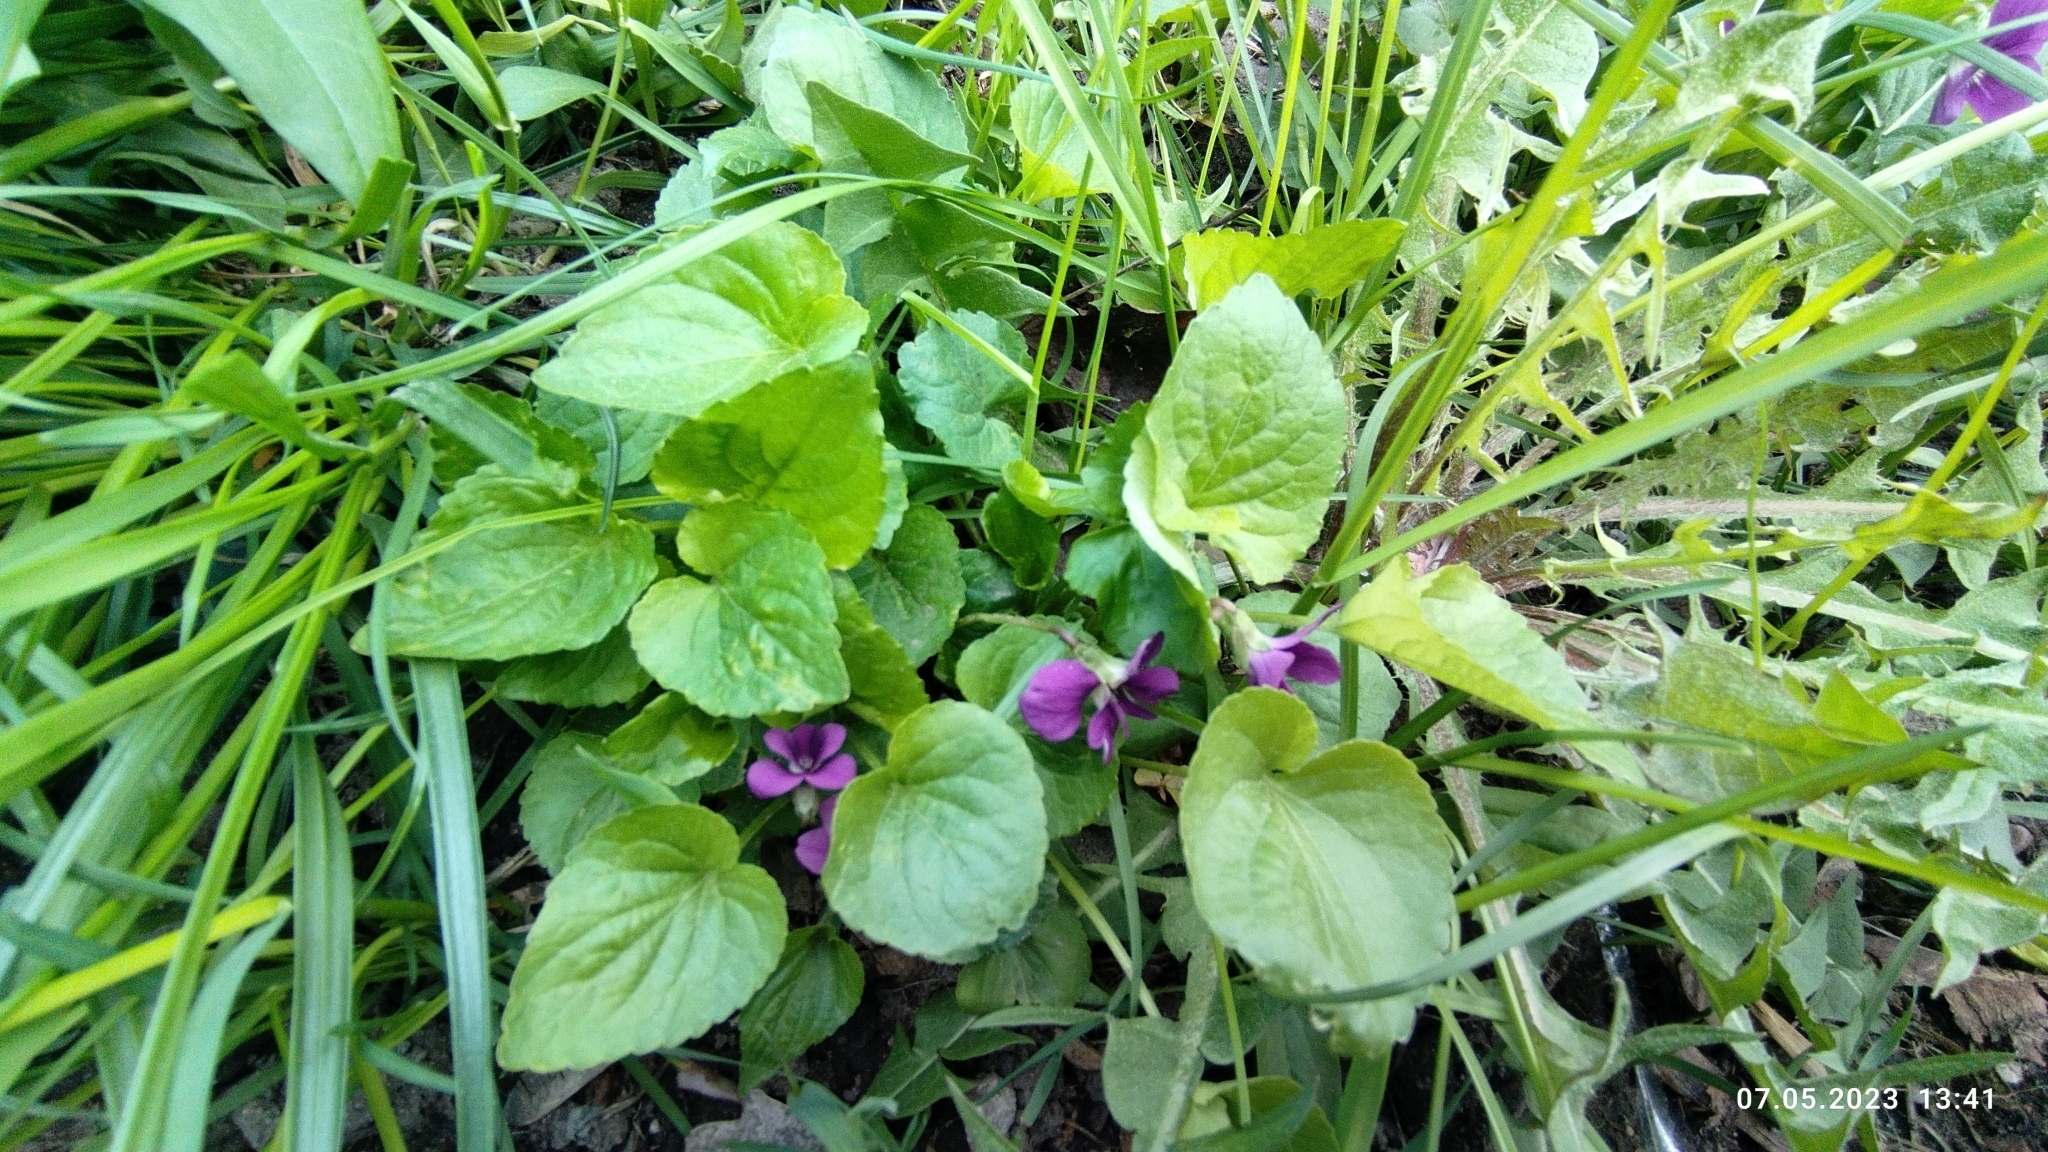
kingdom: Plantae
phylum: Tracheophyta
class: Magnoliopsida
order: Malpighiales
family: Violaceae
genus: Viola
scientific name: Viola odorata
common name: Sweet violet
